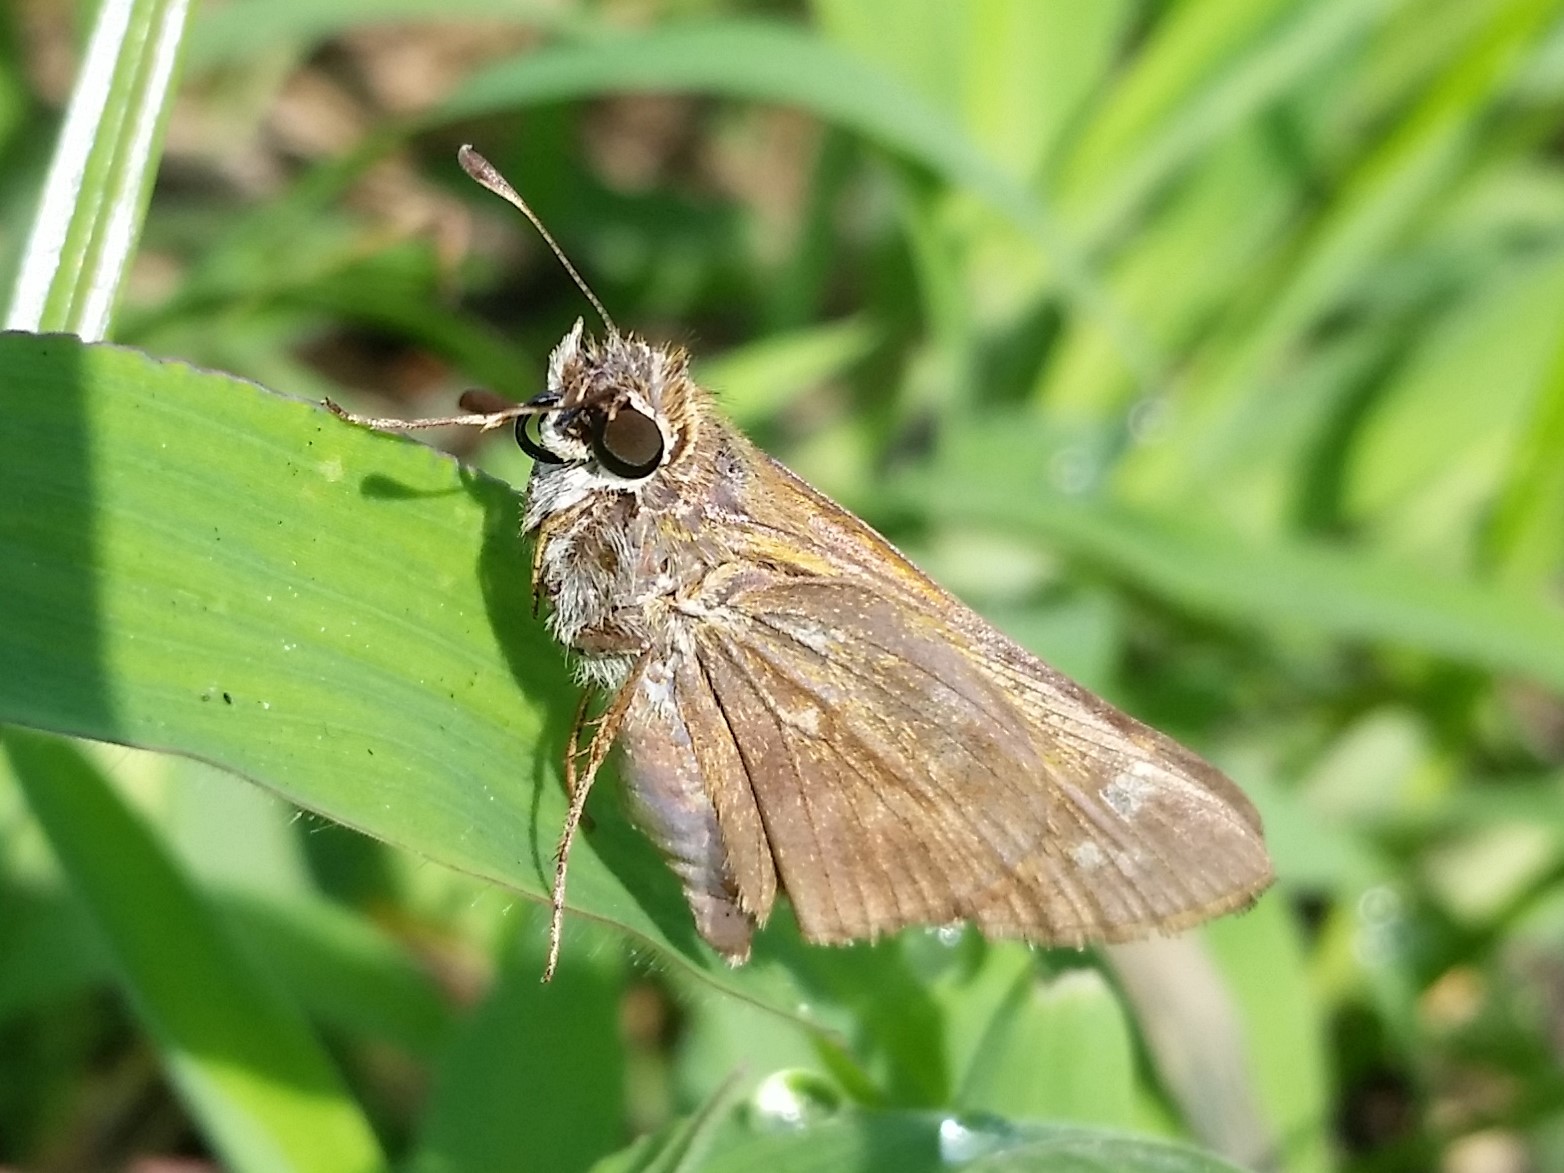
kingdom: Animalia
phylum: Arthropoda
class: Insecta
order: Lepidoptera
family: Hesperiidae
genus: Atalopedes
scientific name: Atalopedes
